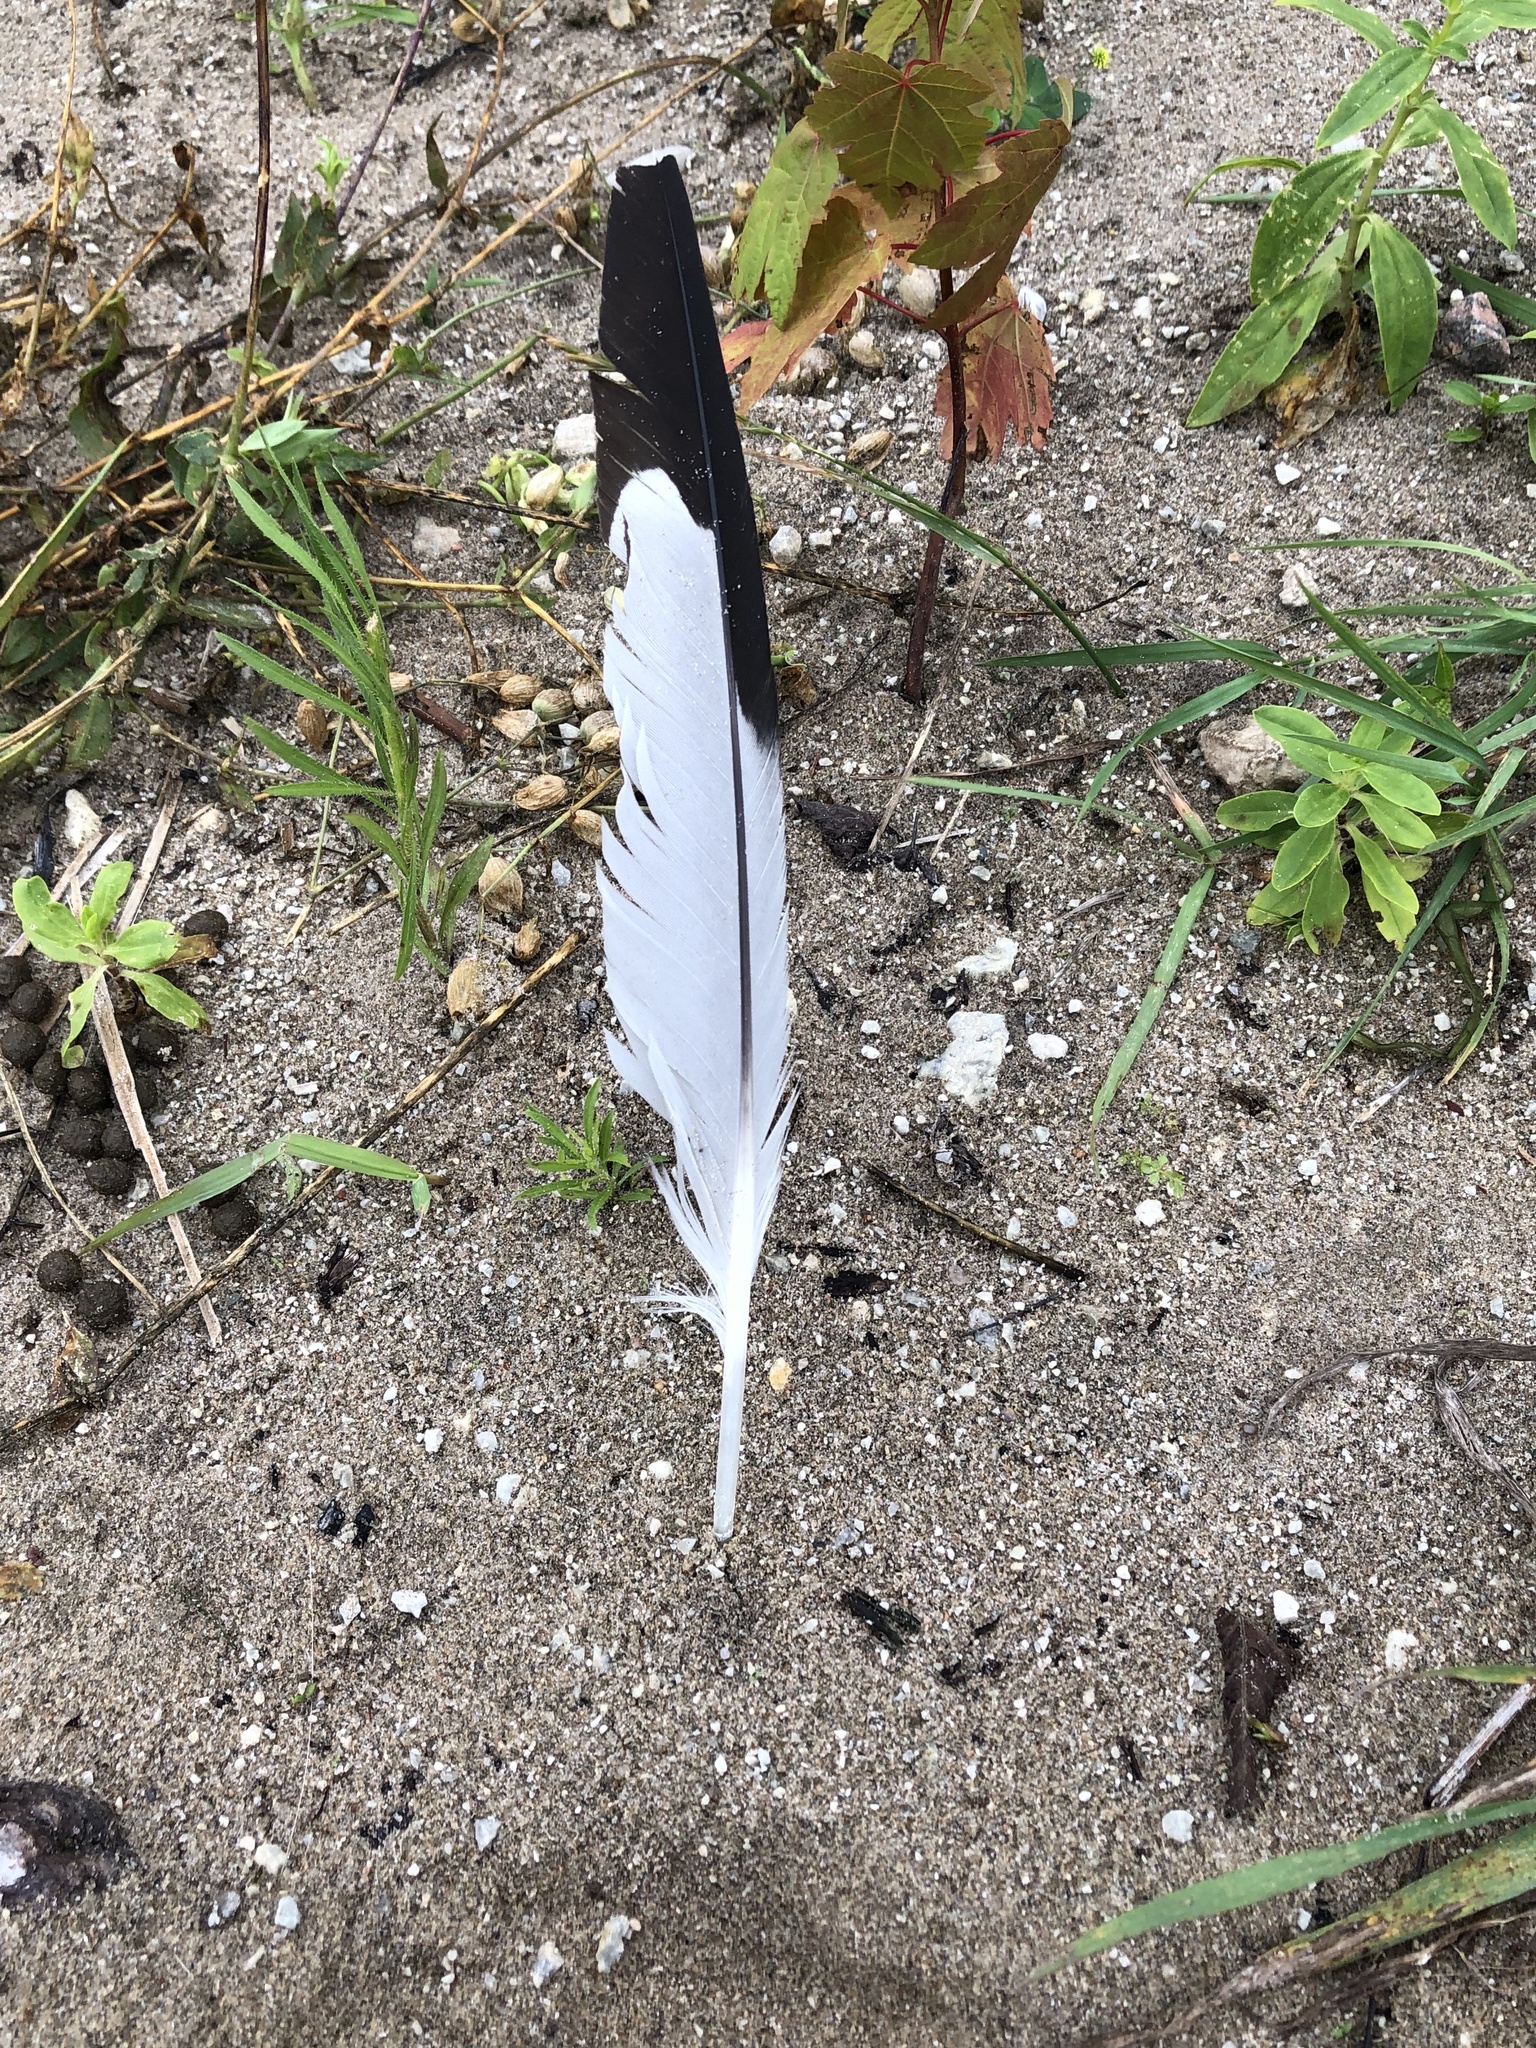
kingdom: Animalia
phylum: Chordata
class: Aves
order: Charadriiformes
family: Laridae
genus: Larus
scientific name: Larus delawarensis
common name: Ring-billed gull
